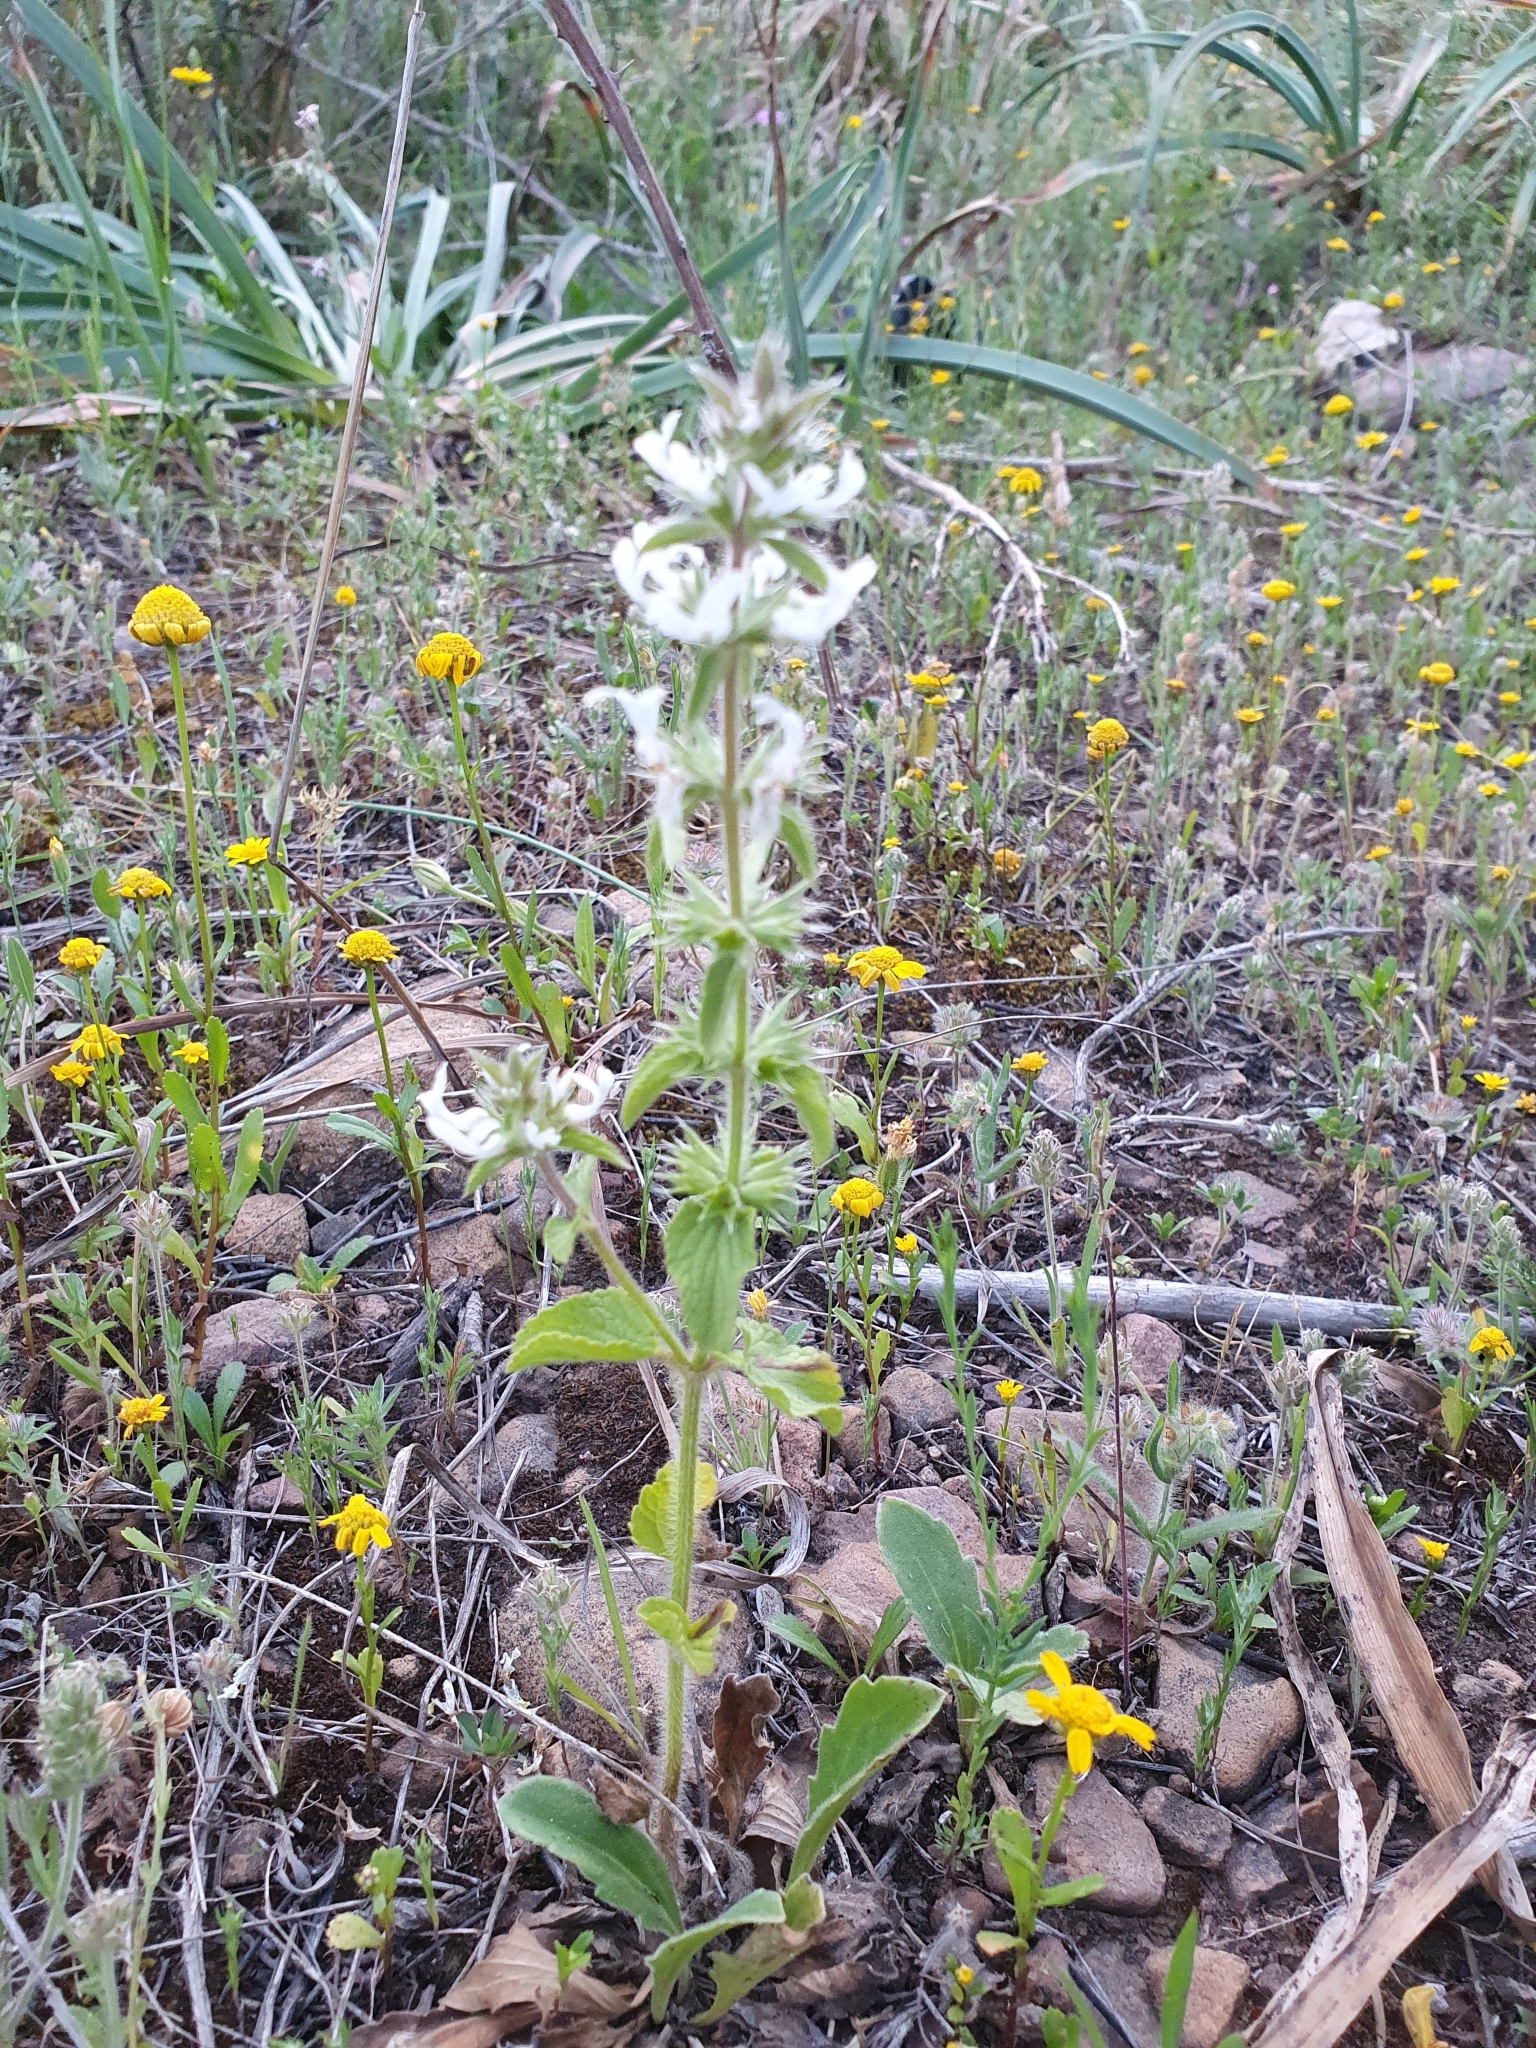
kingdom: Plantae
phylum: Tracheophyta
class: Magnoliopsida
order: Lamiales
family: Lamiaceae
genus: Stachys
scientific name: Stachys ocymastrum
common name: Italian hedgenettle
